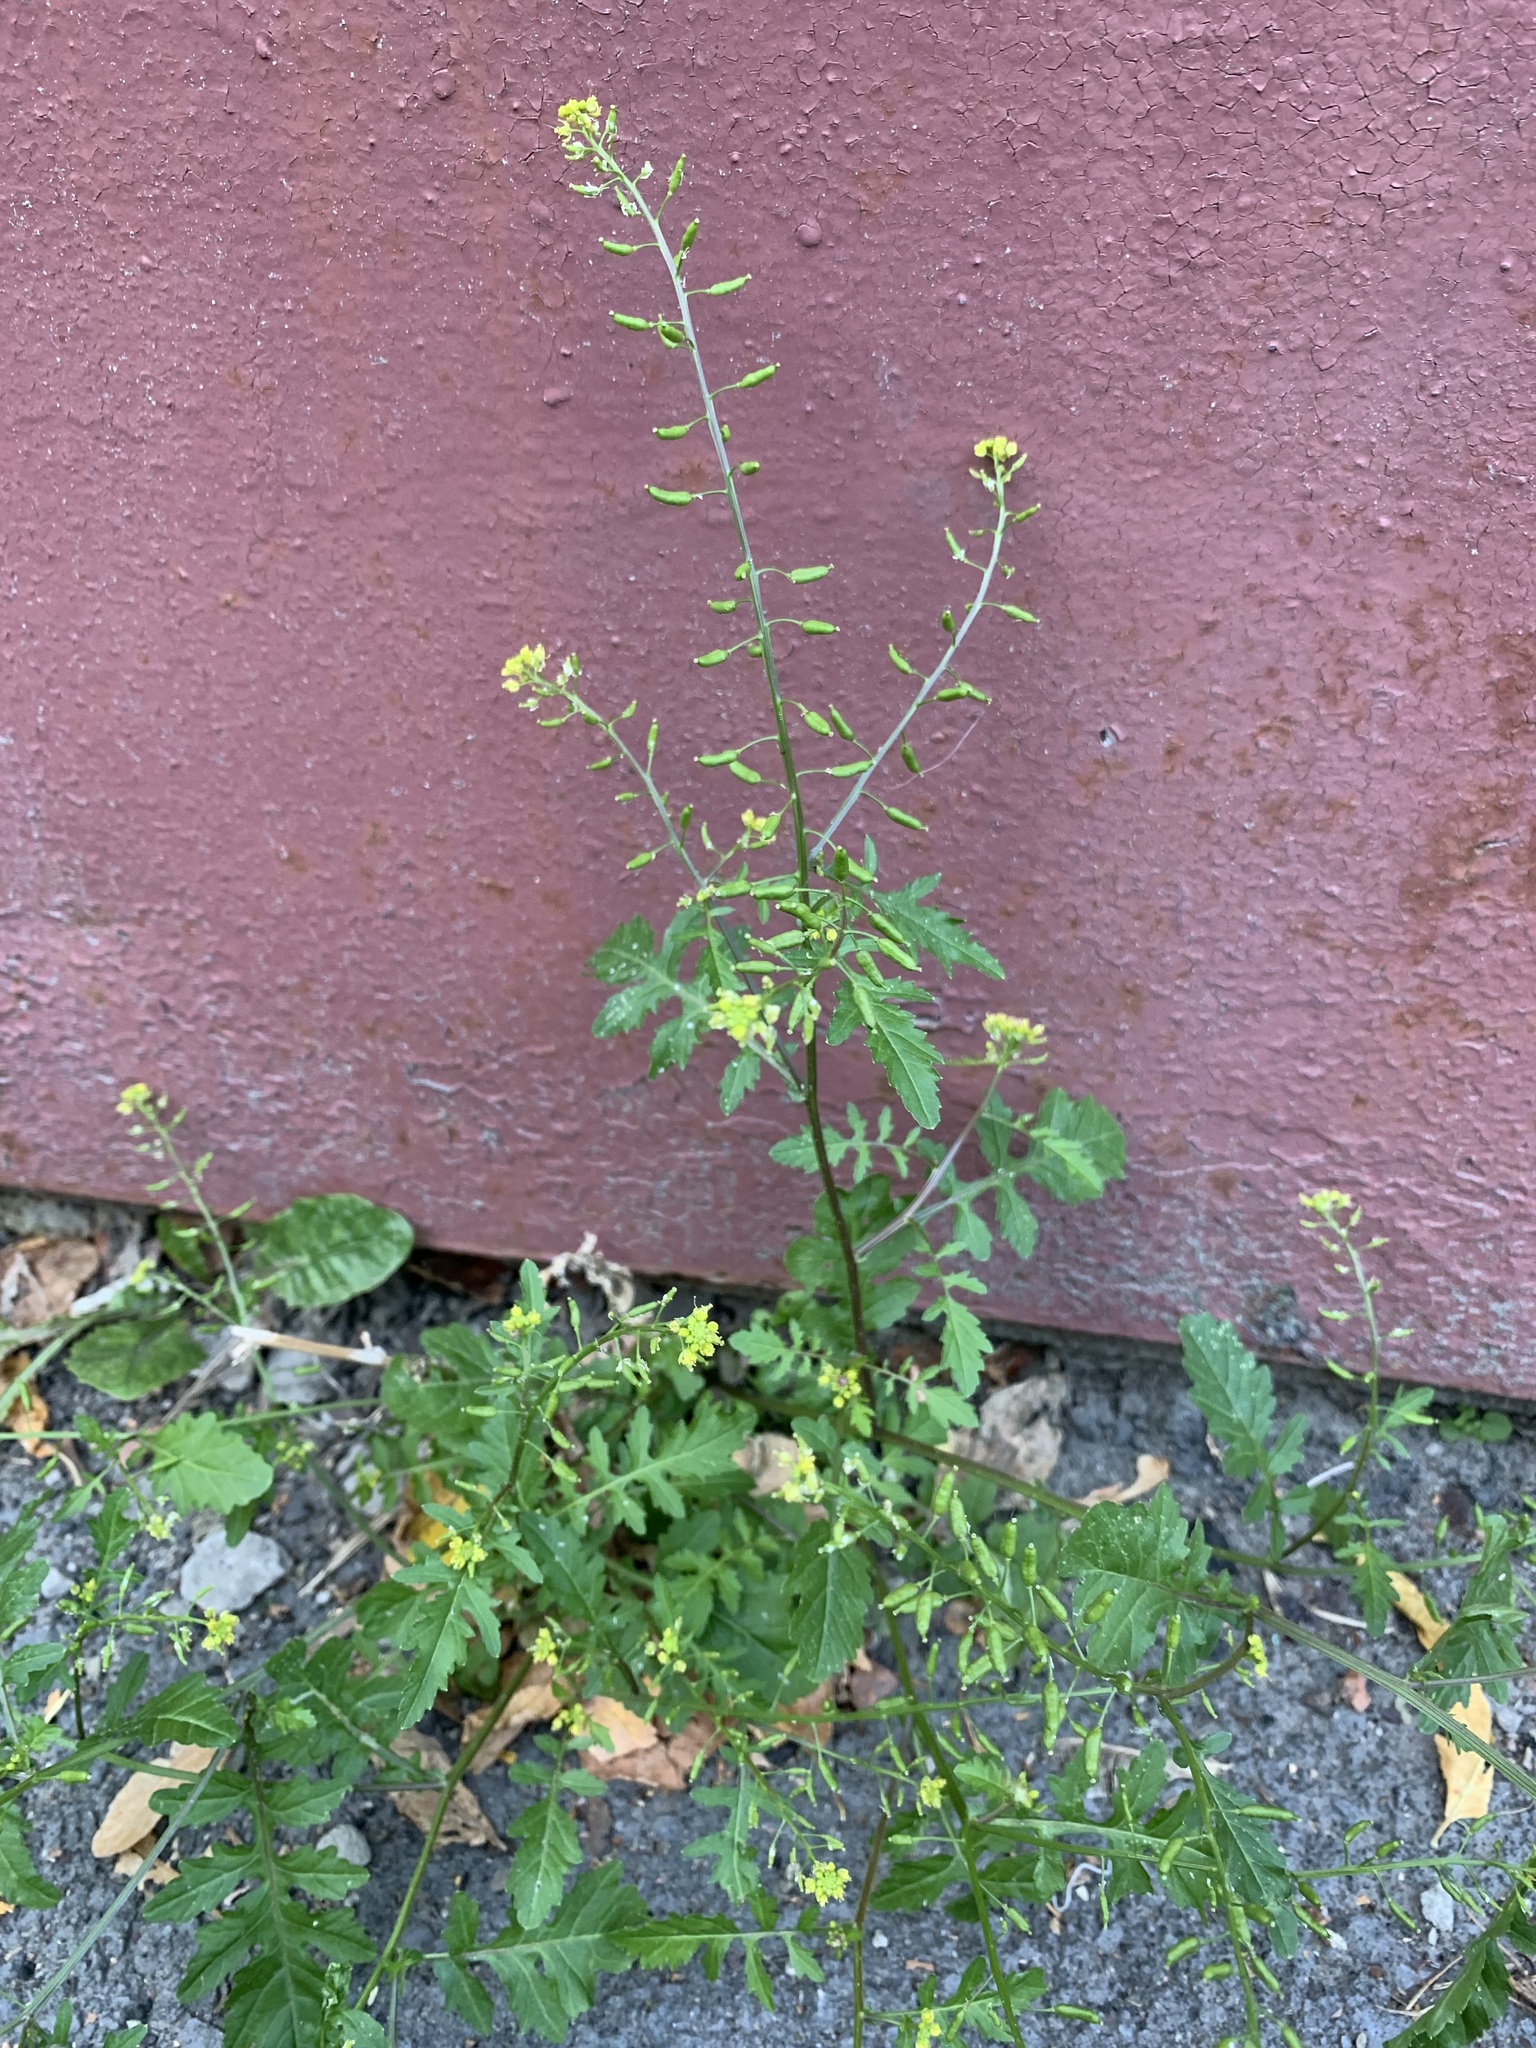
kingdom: Plantae
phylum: Tracheophyta
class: Magnoliopsida
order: Brassicales
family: Brassicaceae
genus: Rorippa
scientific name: Rorippa palustris
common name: Marsh yellow-cress
